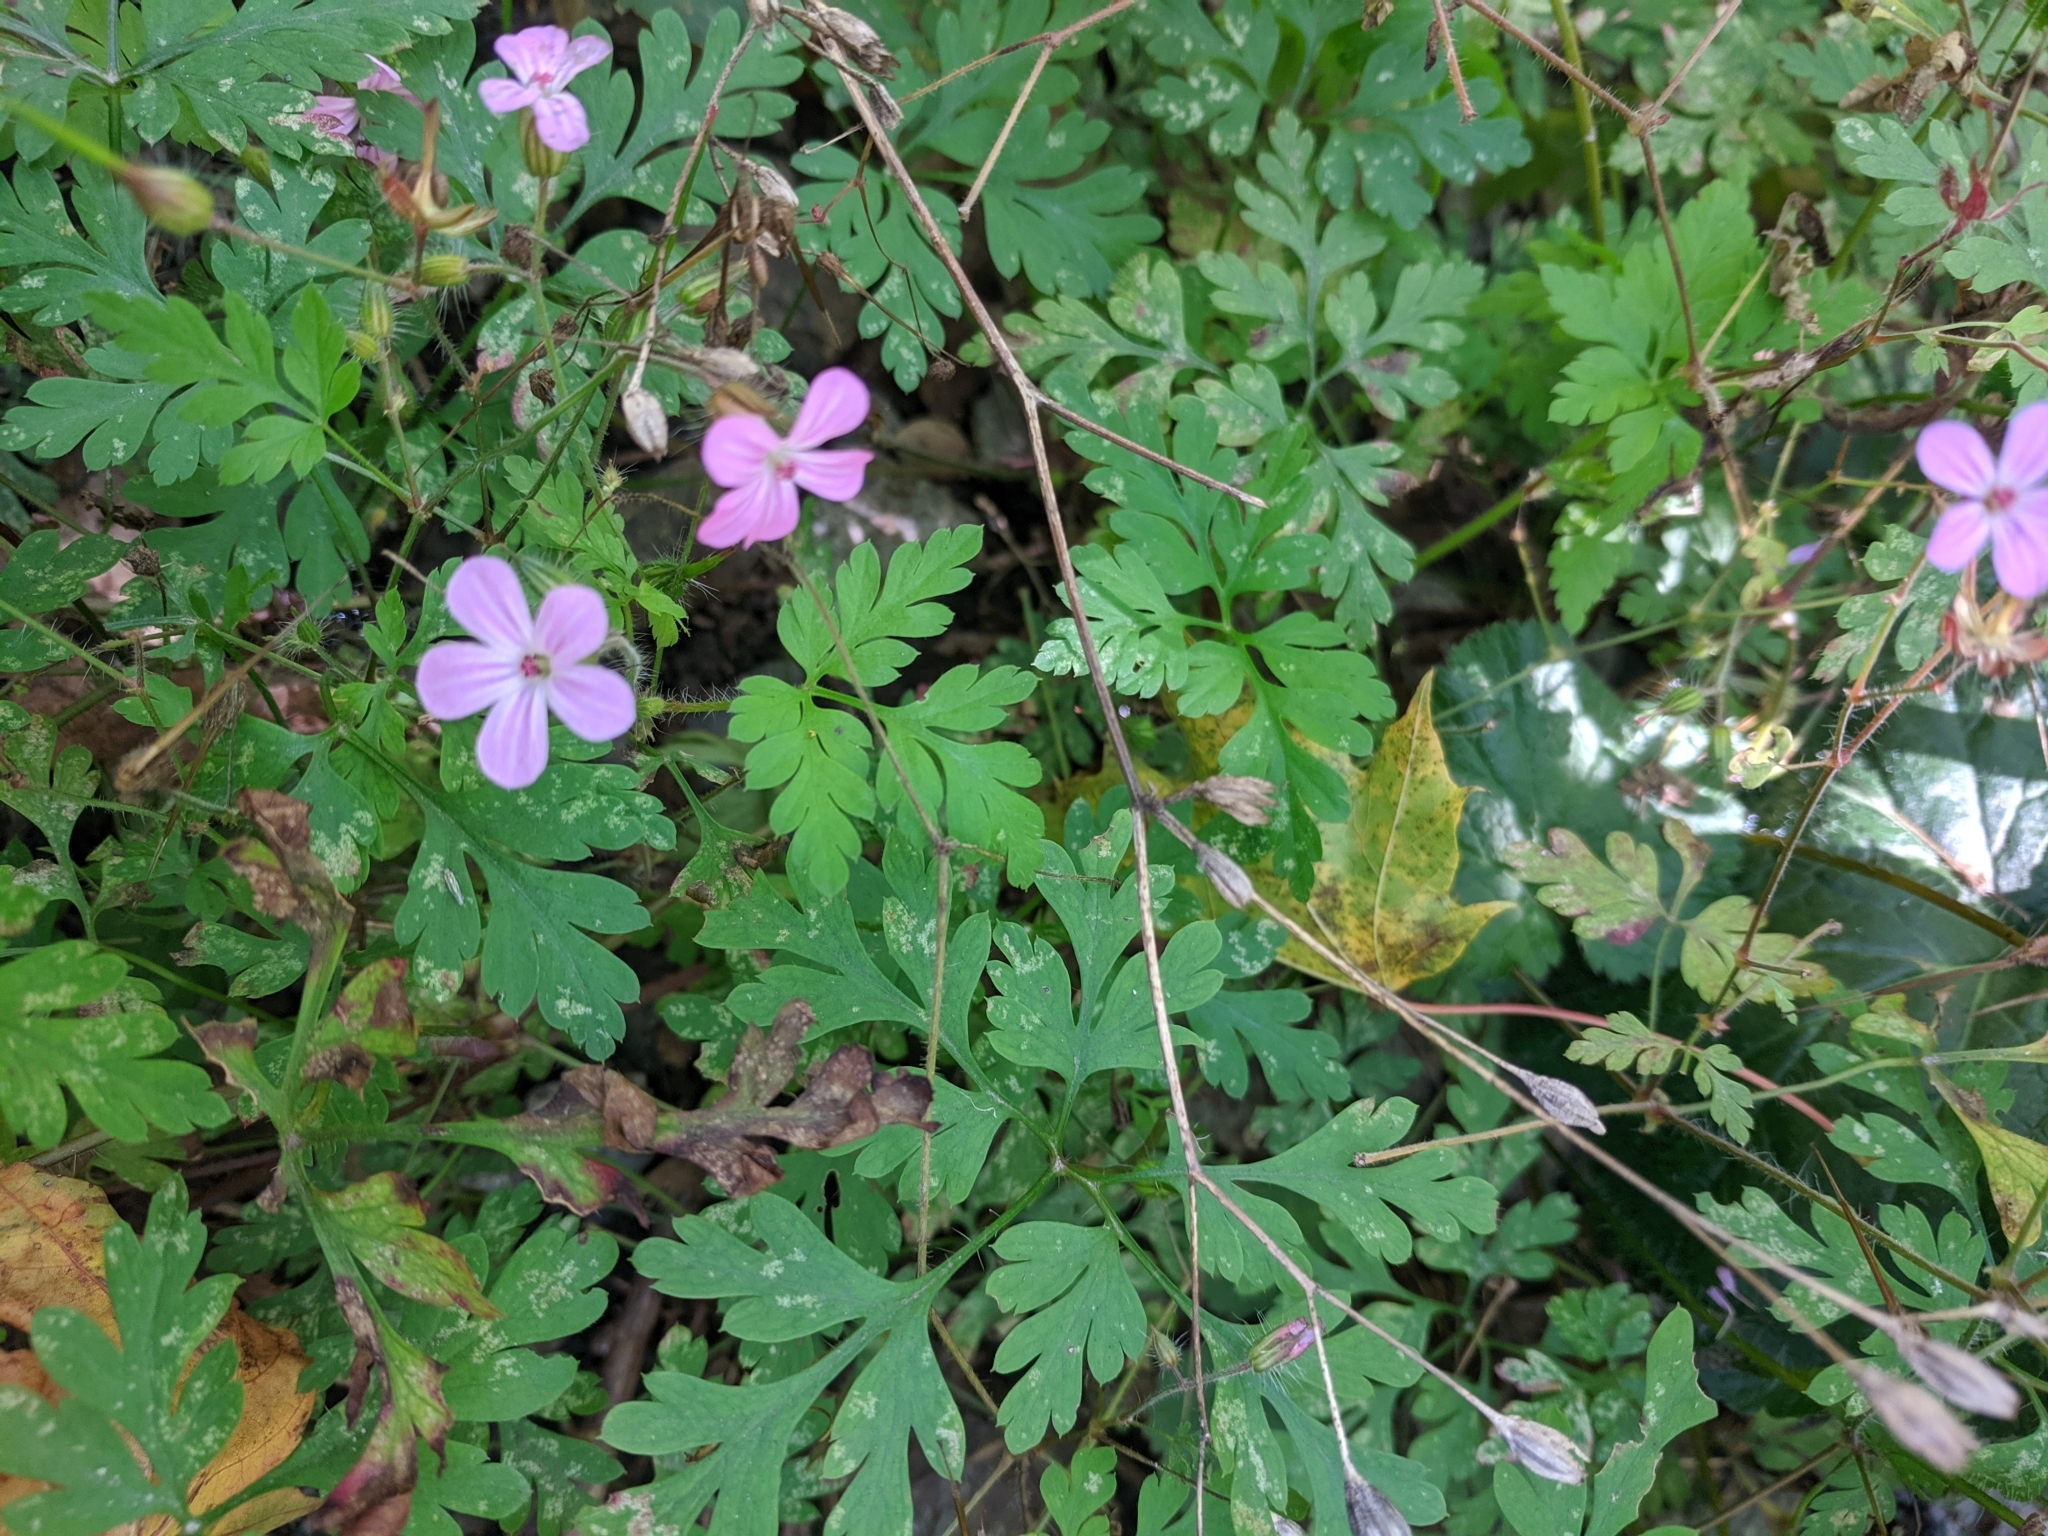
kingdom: Plantae
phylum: Tracheophyta
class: Magnoliopsida
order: Geraniales
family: Geraniaceae
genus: Geranium
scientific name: Geranium robertianum
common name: Herb-robert
